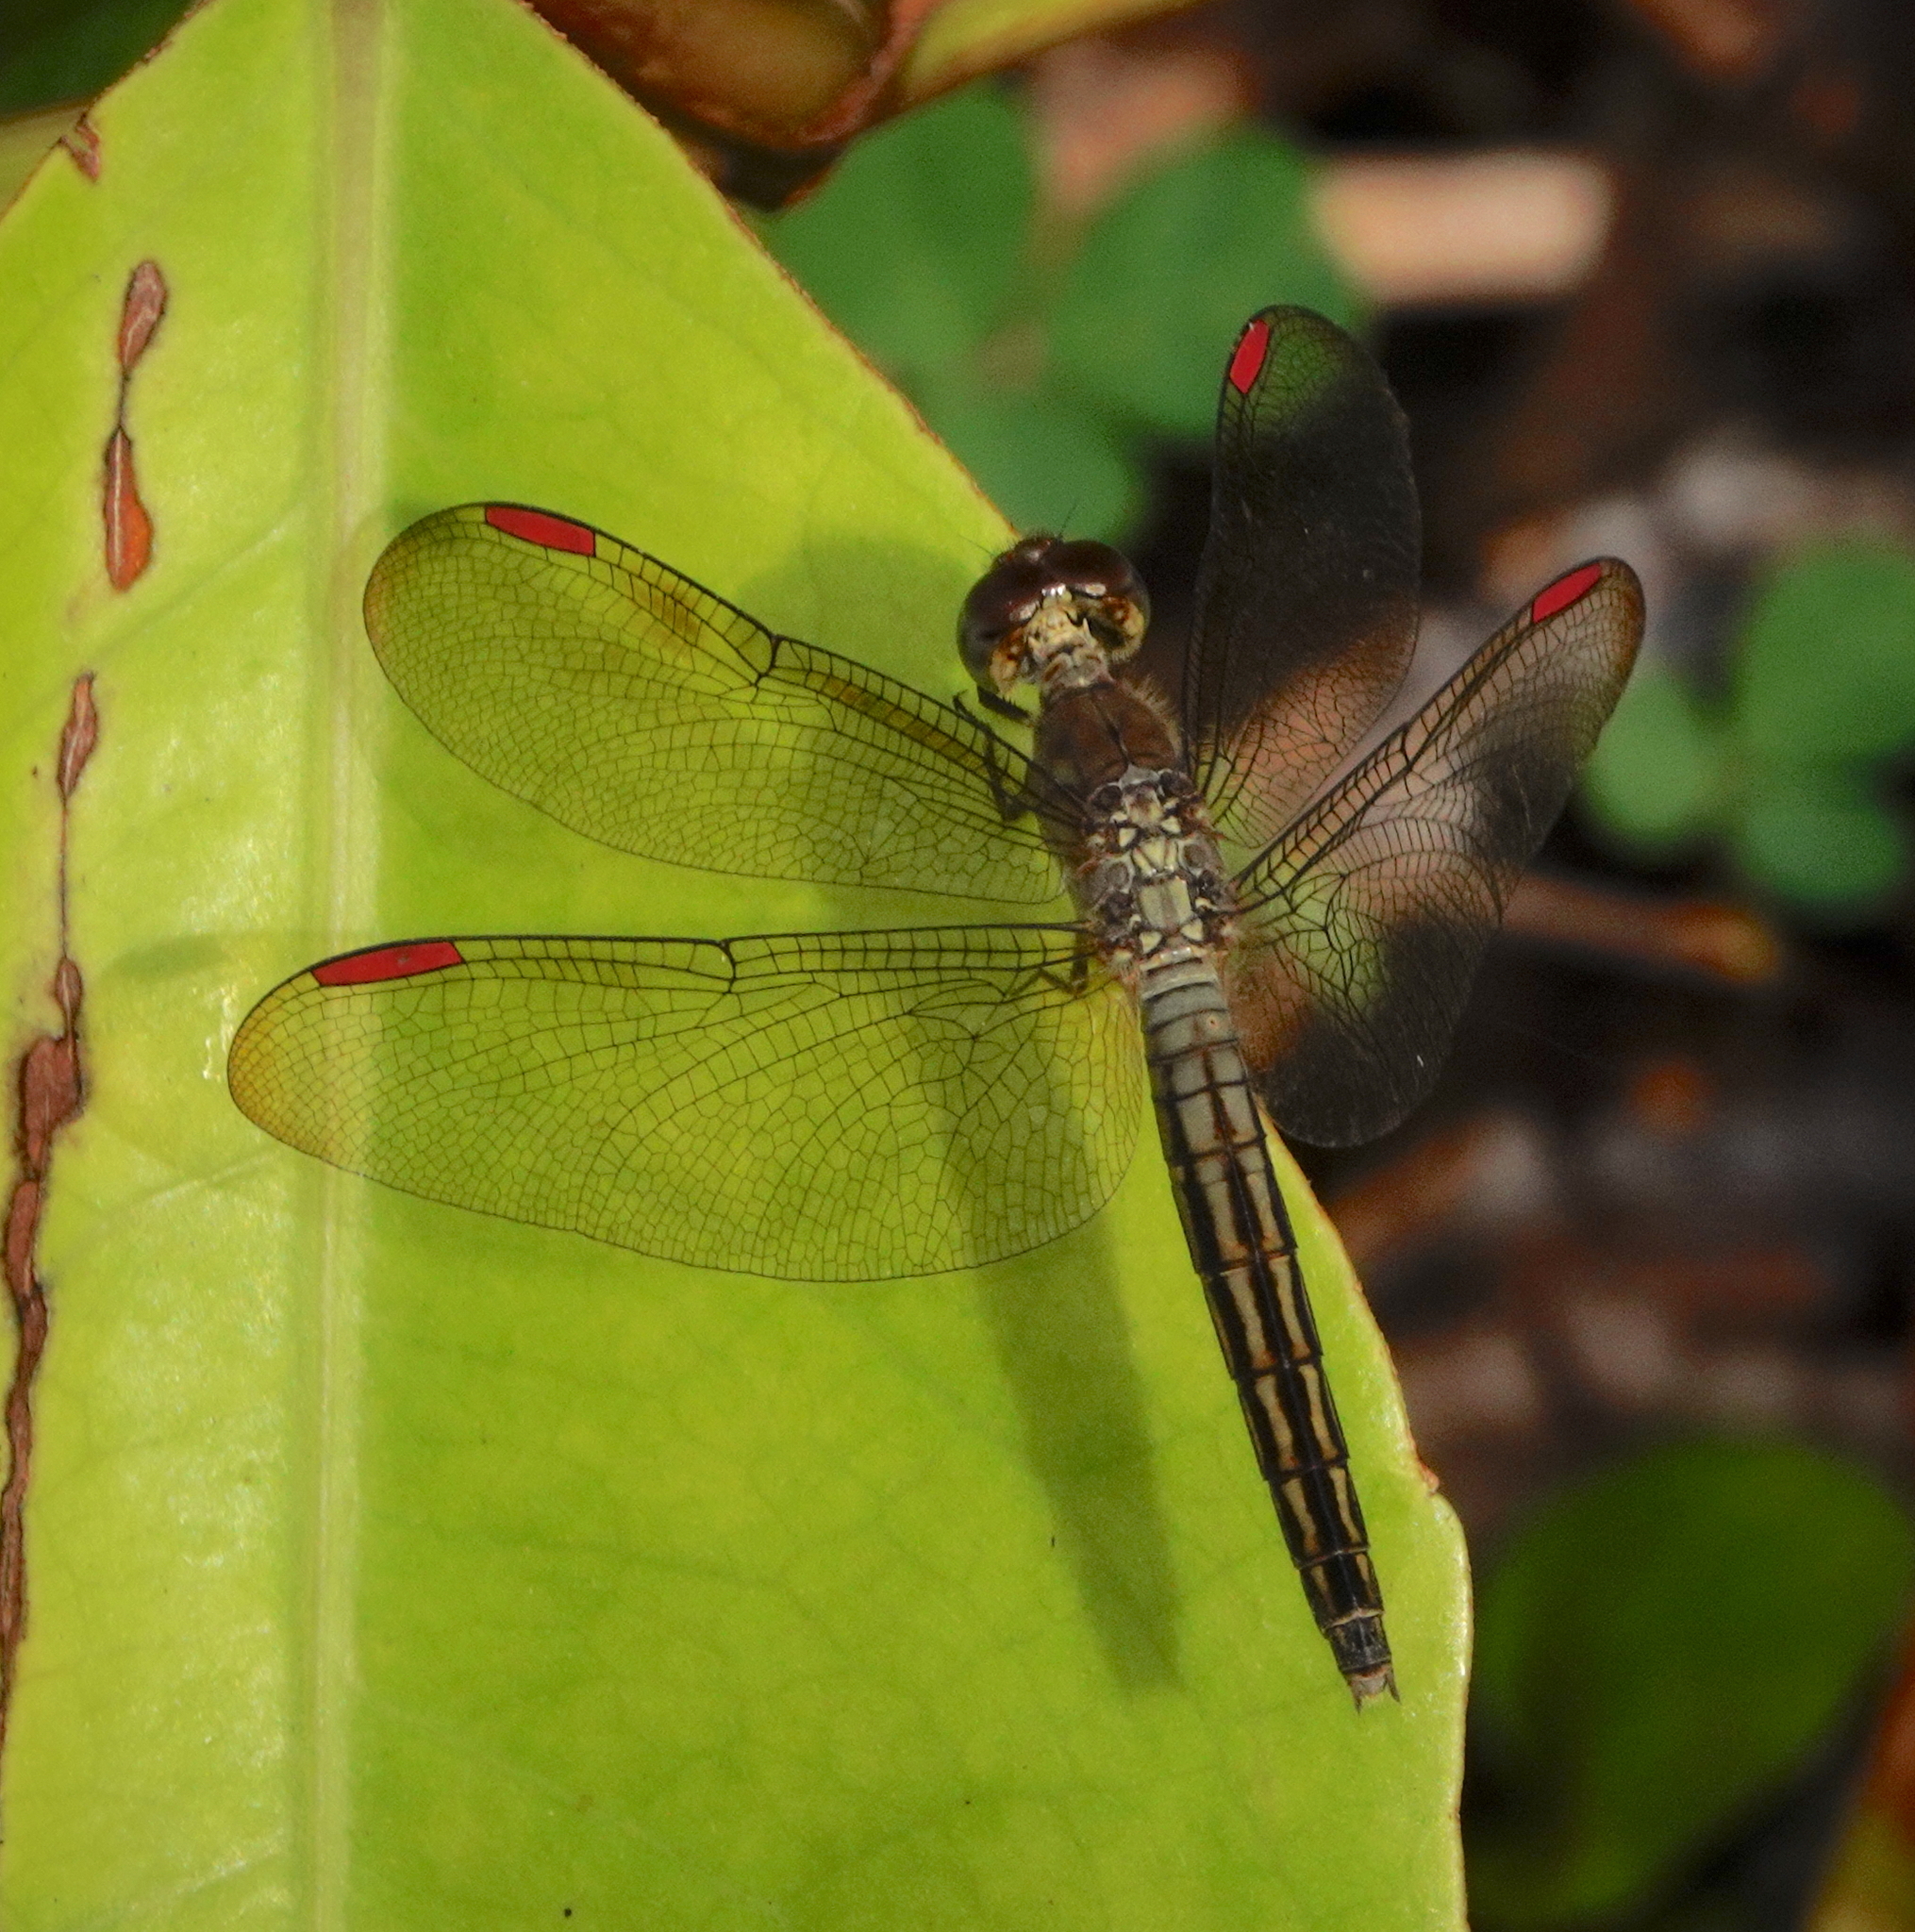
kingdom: Animalia
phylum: Arthropoda
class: Insecta
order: Odonata
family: Libellulidae
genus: Neurothemis
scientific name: Neurothemis manadensis
